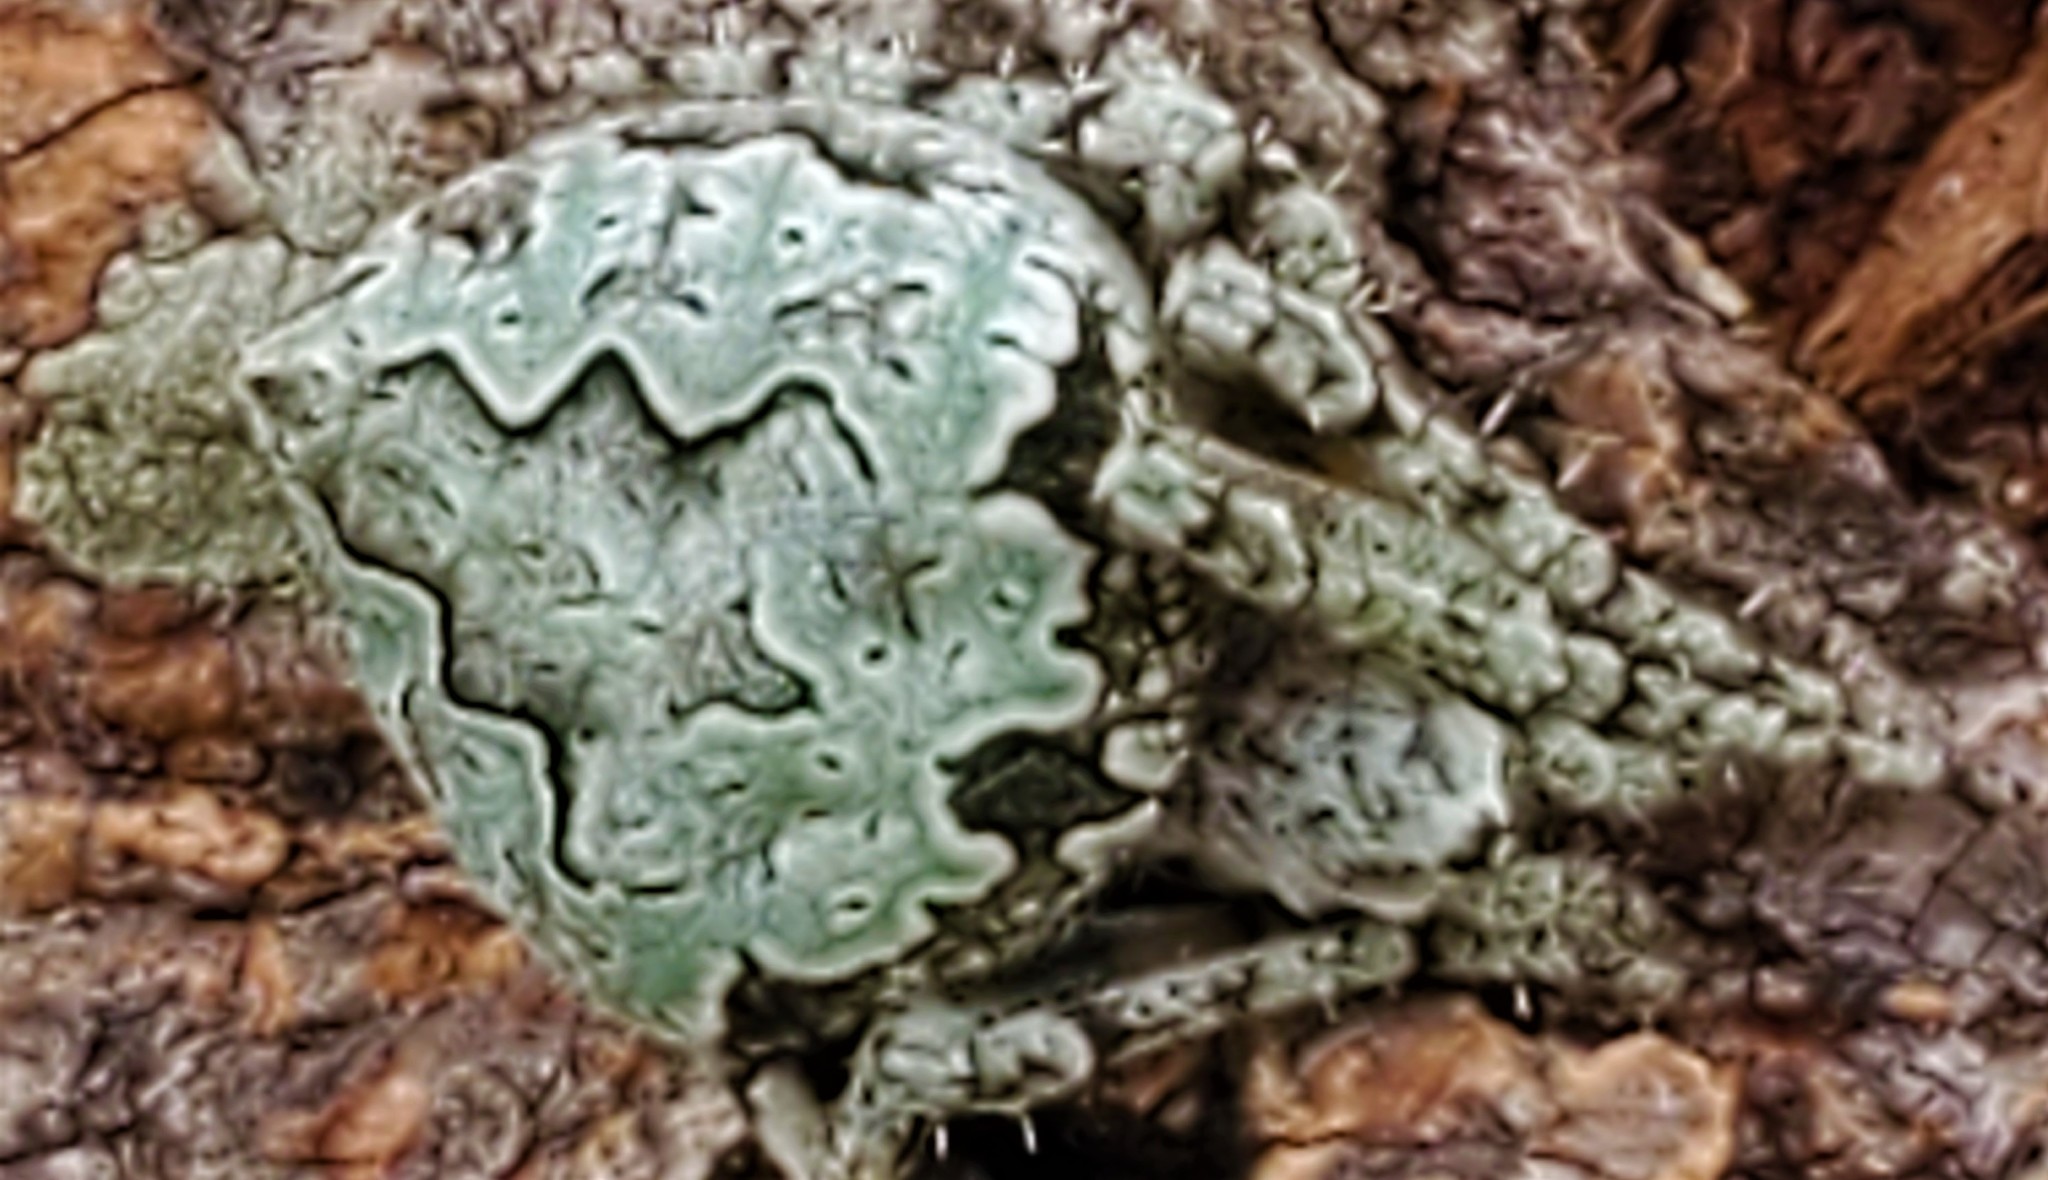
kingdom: Animalia
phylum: Arthropoda
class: Arachnida
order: Araneae
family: Araneidae
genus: Eustala
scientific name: Eustala anastera
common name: Orb weavers
